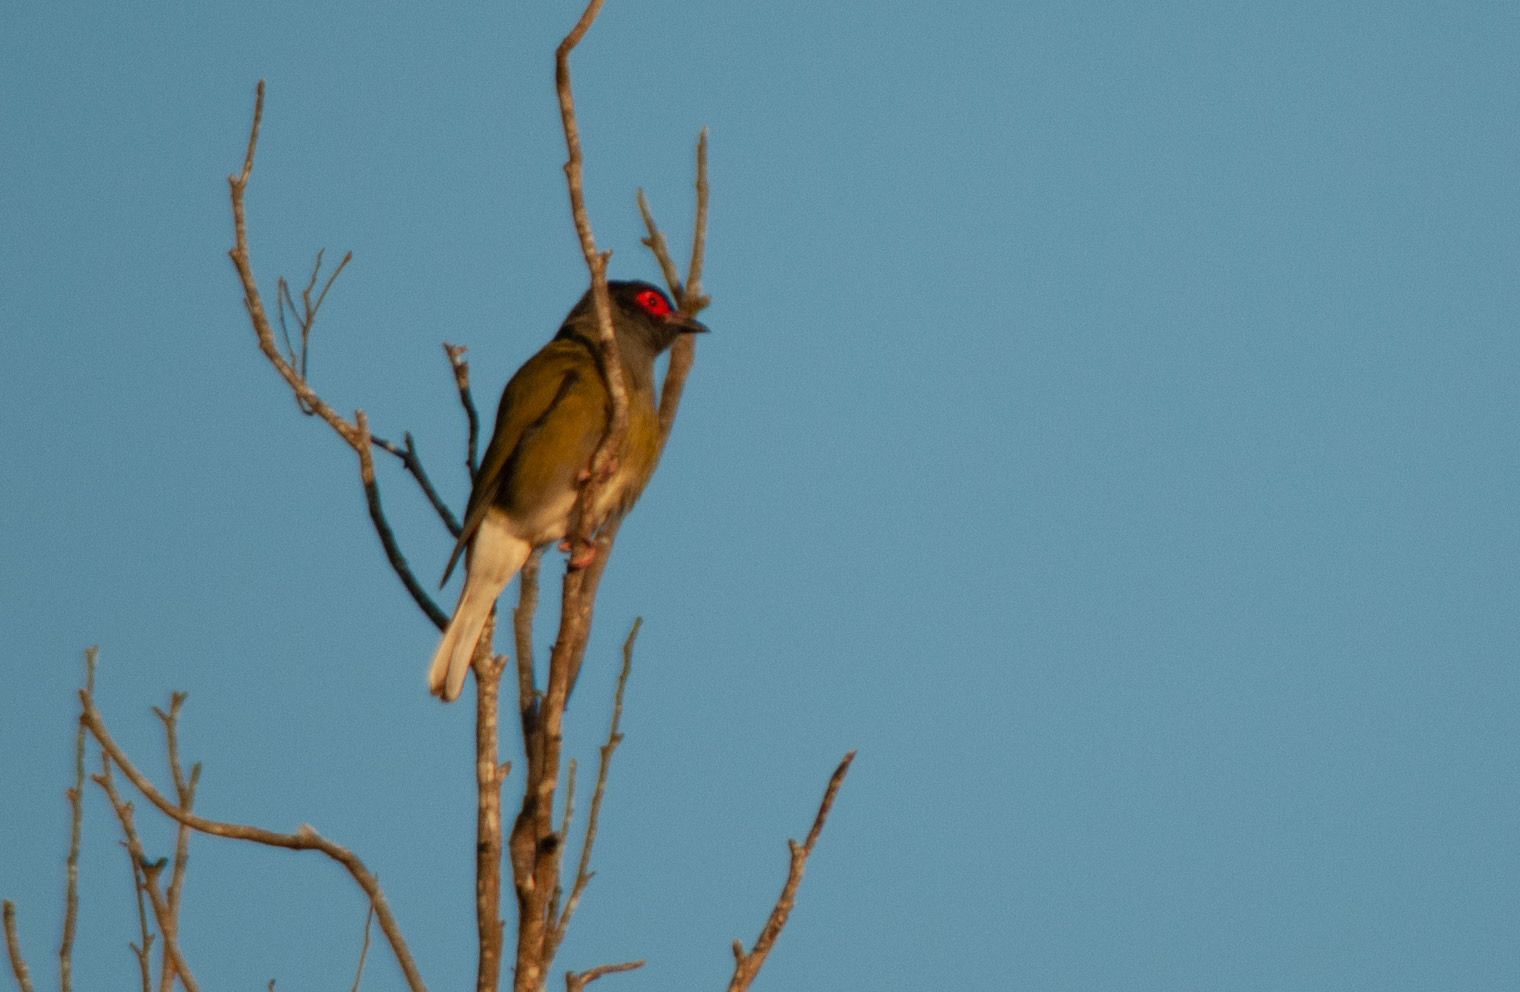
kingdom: Animalia
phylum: Chordata
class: Aves
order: Passeriformes
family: Oriolidae
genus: Sphecotheres
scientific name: Sphecotheres vieilloti
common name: Australasian figbird
